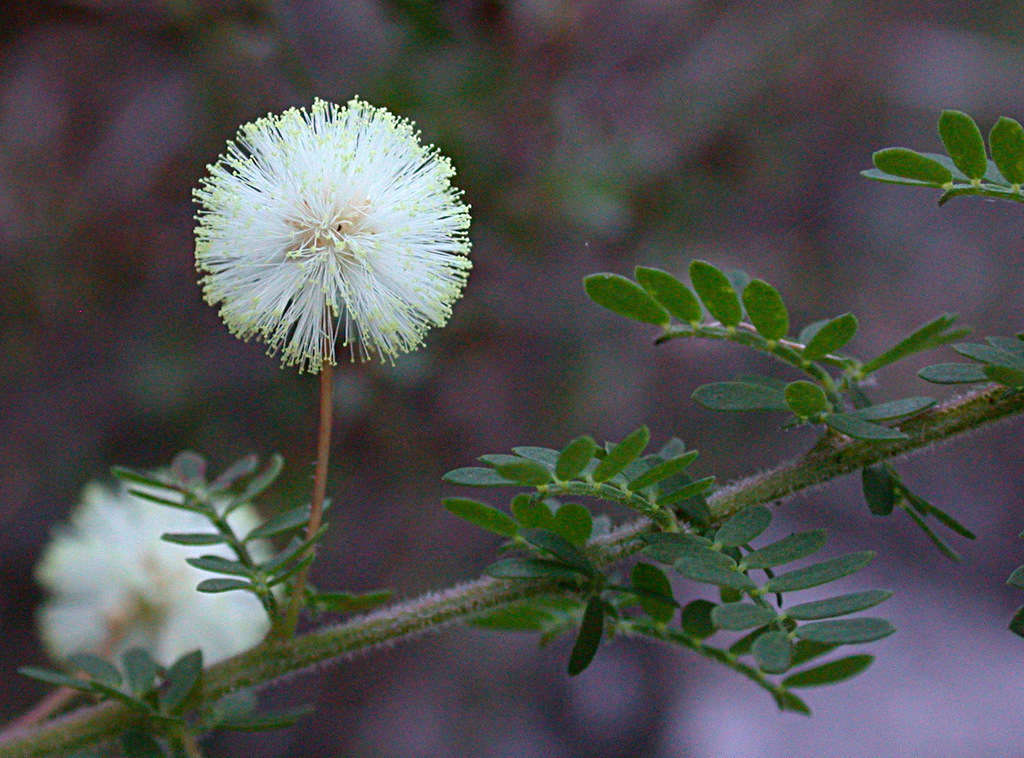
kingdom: Plantae
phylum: Tracheophyta
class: Magnoliopsida
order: Fabales
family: Fabaceae
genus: Acacia
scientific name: Acacia mitchellii
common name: Mitchell's wattle
